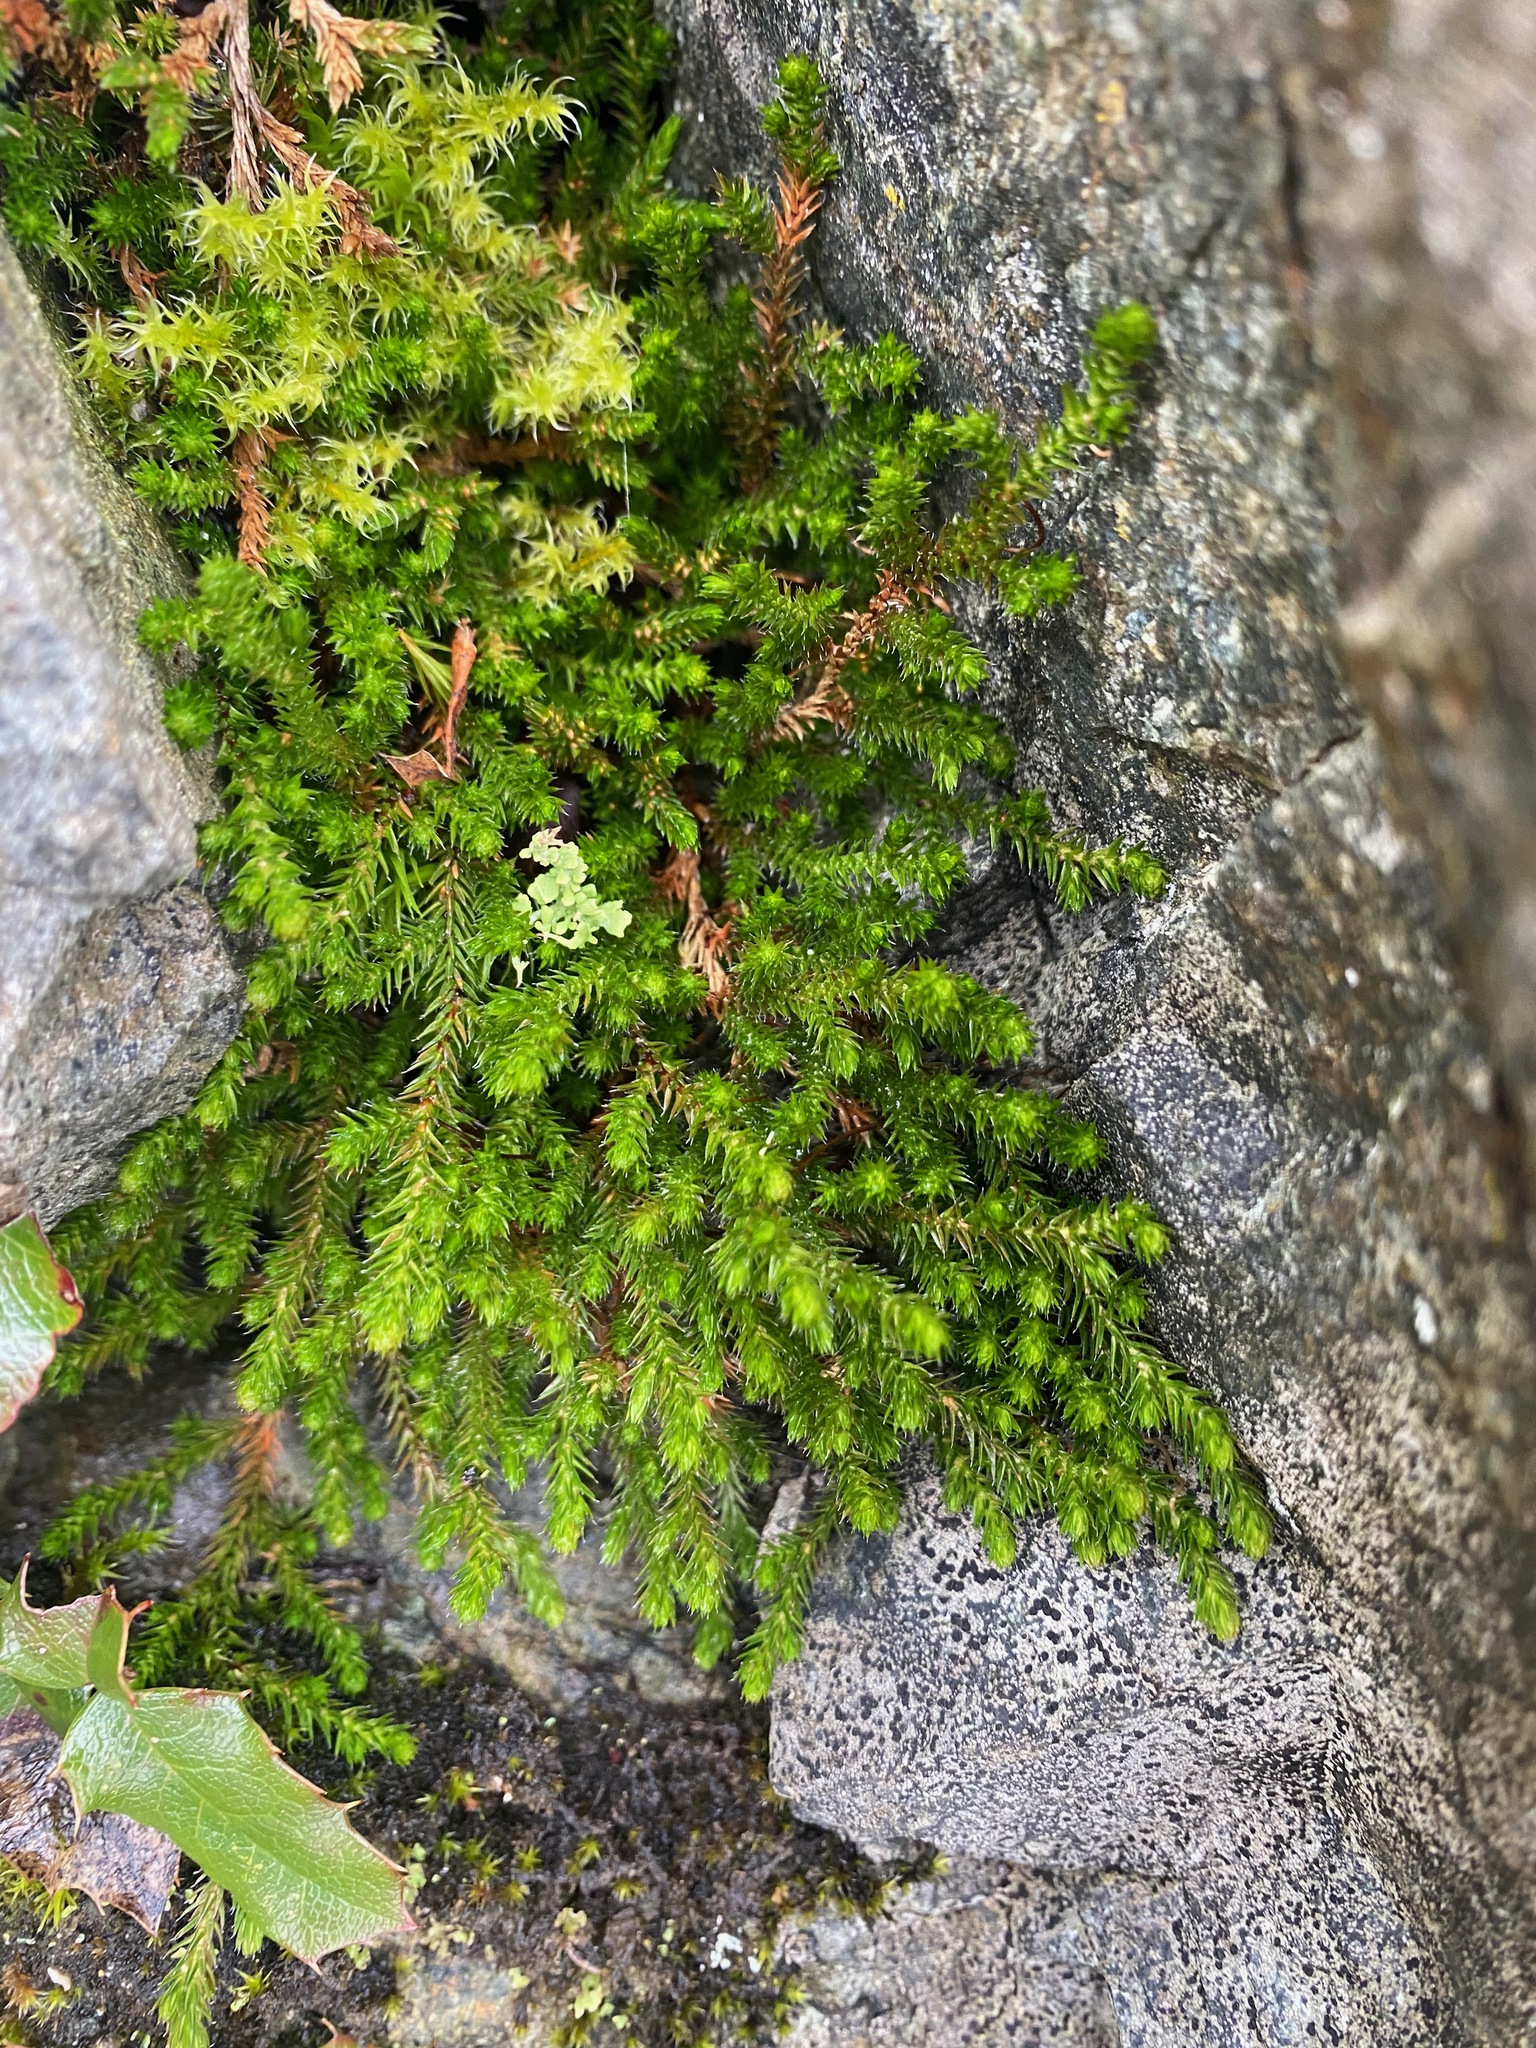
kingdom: Plantae
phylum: Tracheophyta
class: Lycopodiopsida
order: Selaginellales
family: Selaginellaceae
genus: Selaginella
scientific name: Selaginella wallacei
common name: Wallace's selaginella
